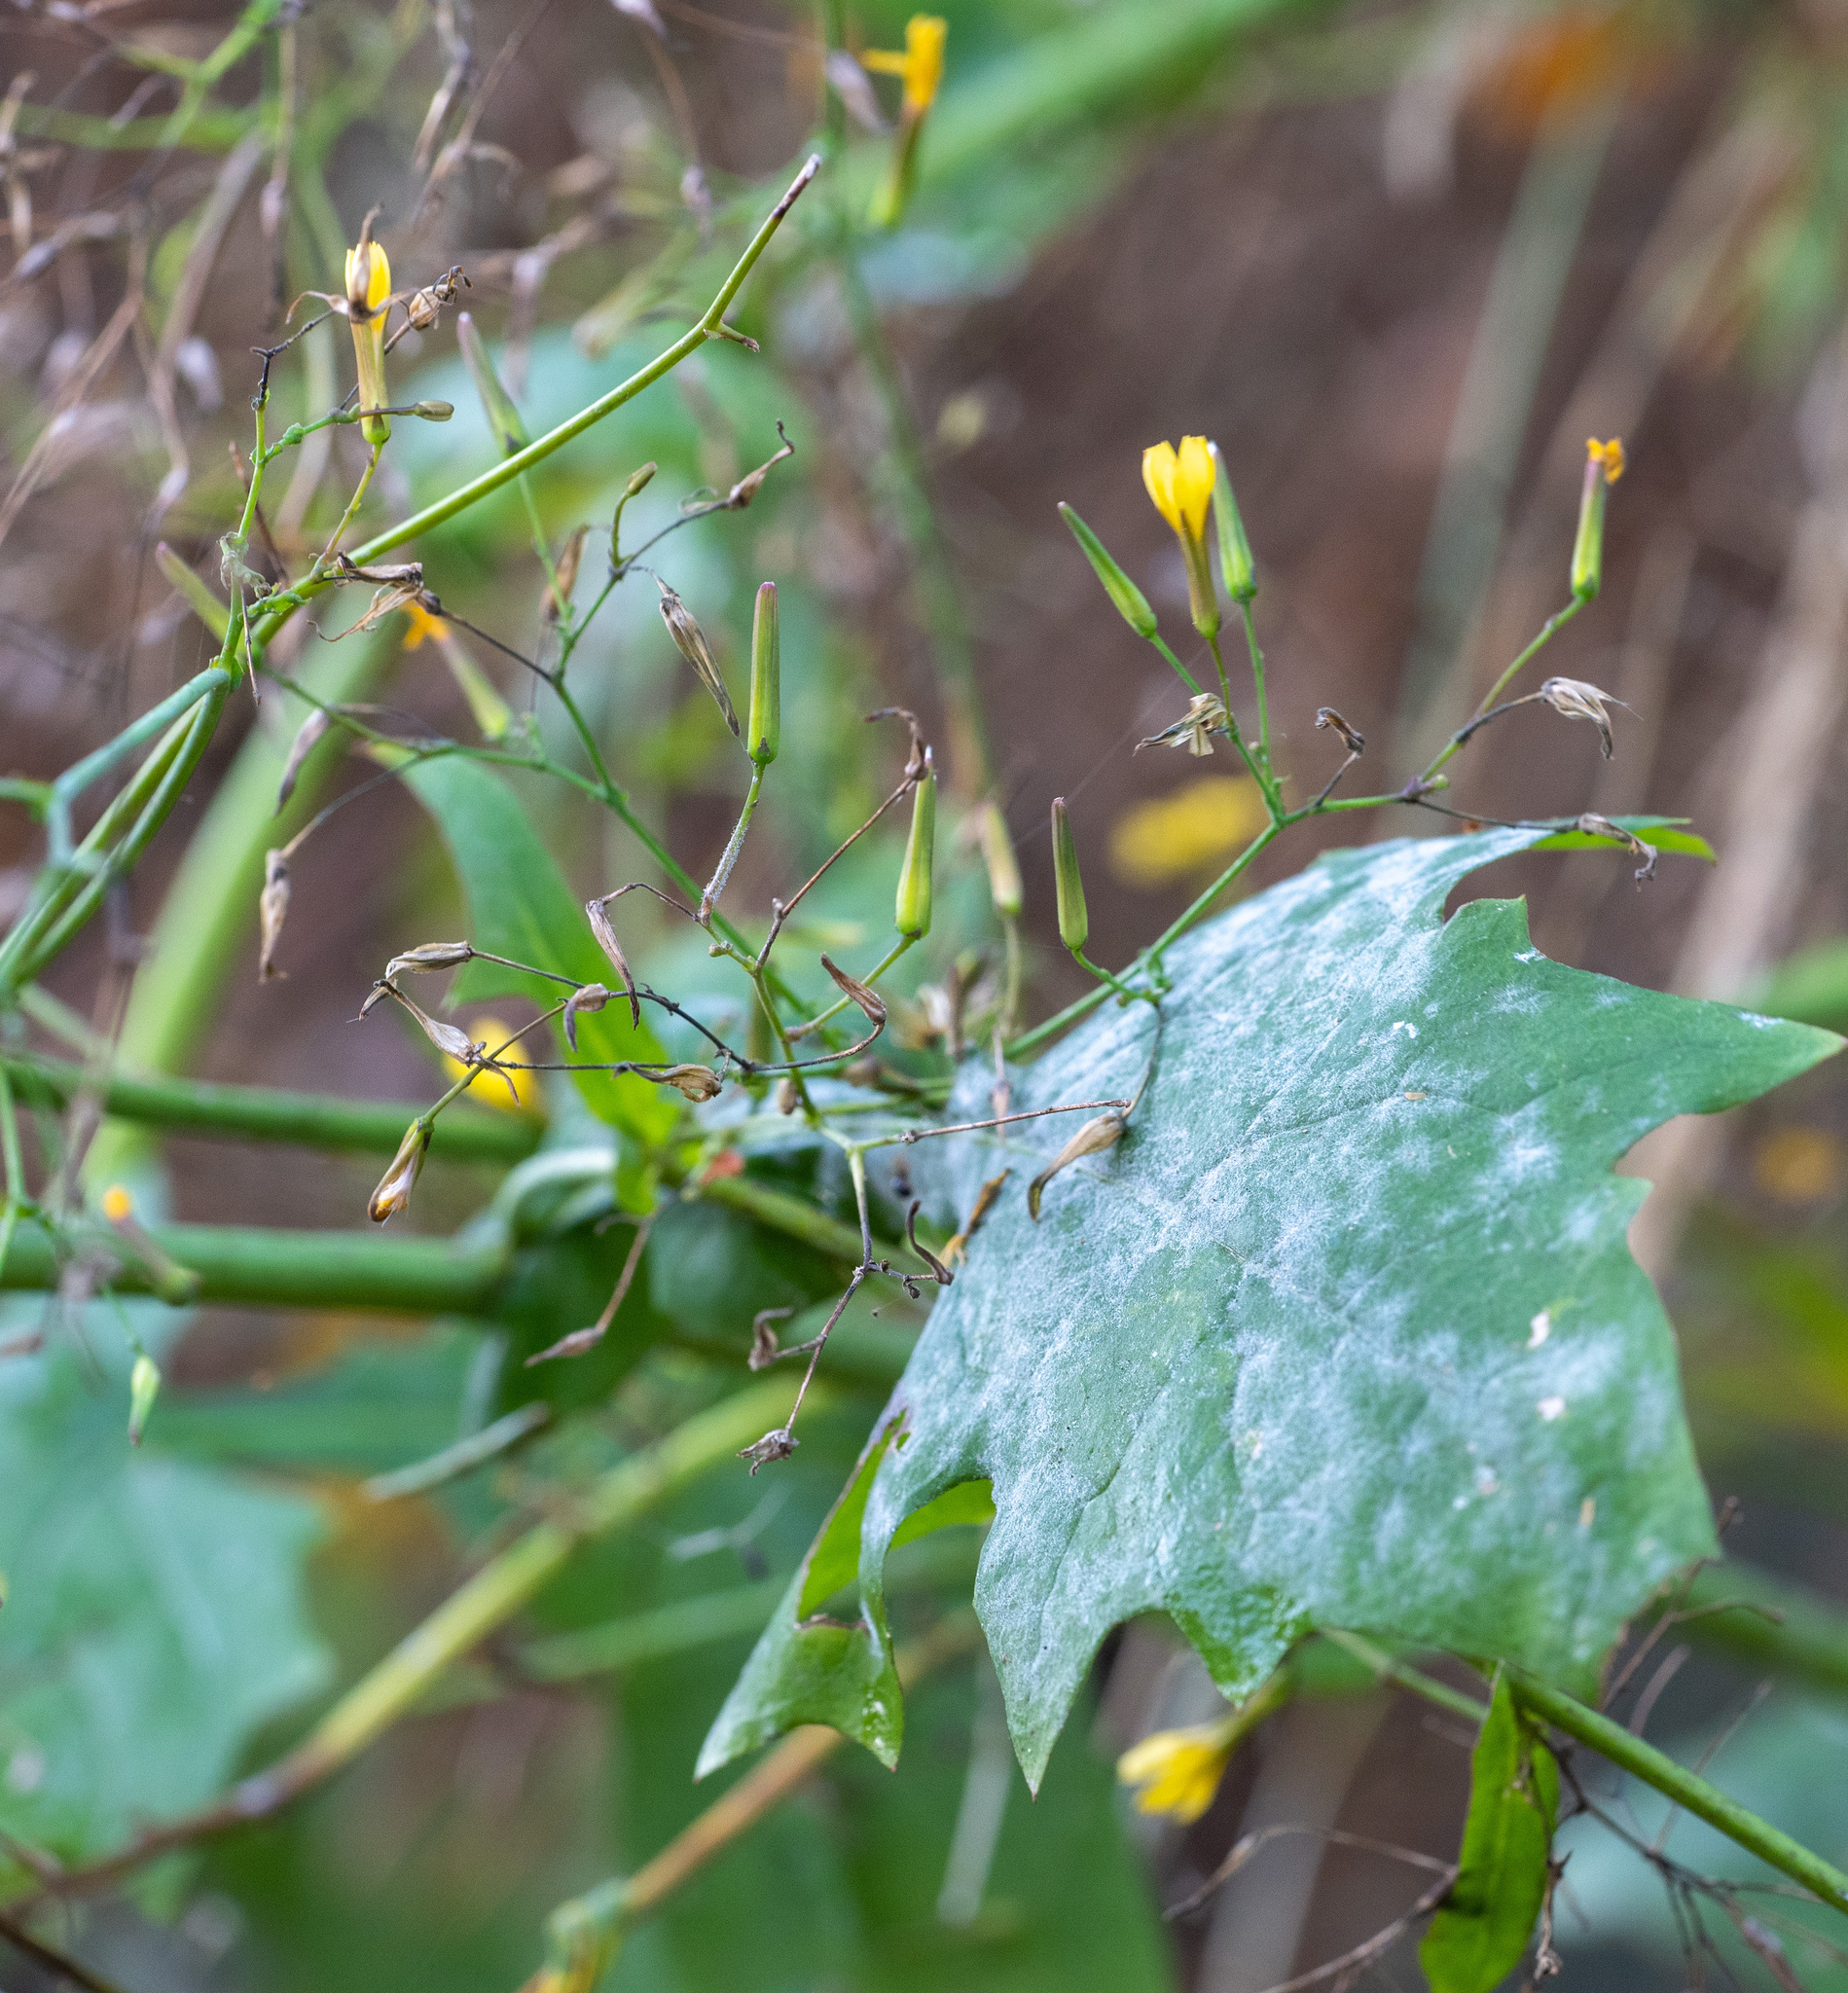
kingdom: Plantae
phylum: Tracheophyta
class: Magnoliopsida
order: Asterales
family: Asteraceae
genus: Mycelis
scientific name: Mycelis muralis
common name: Wall lettuce
